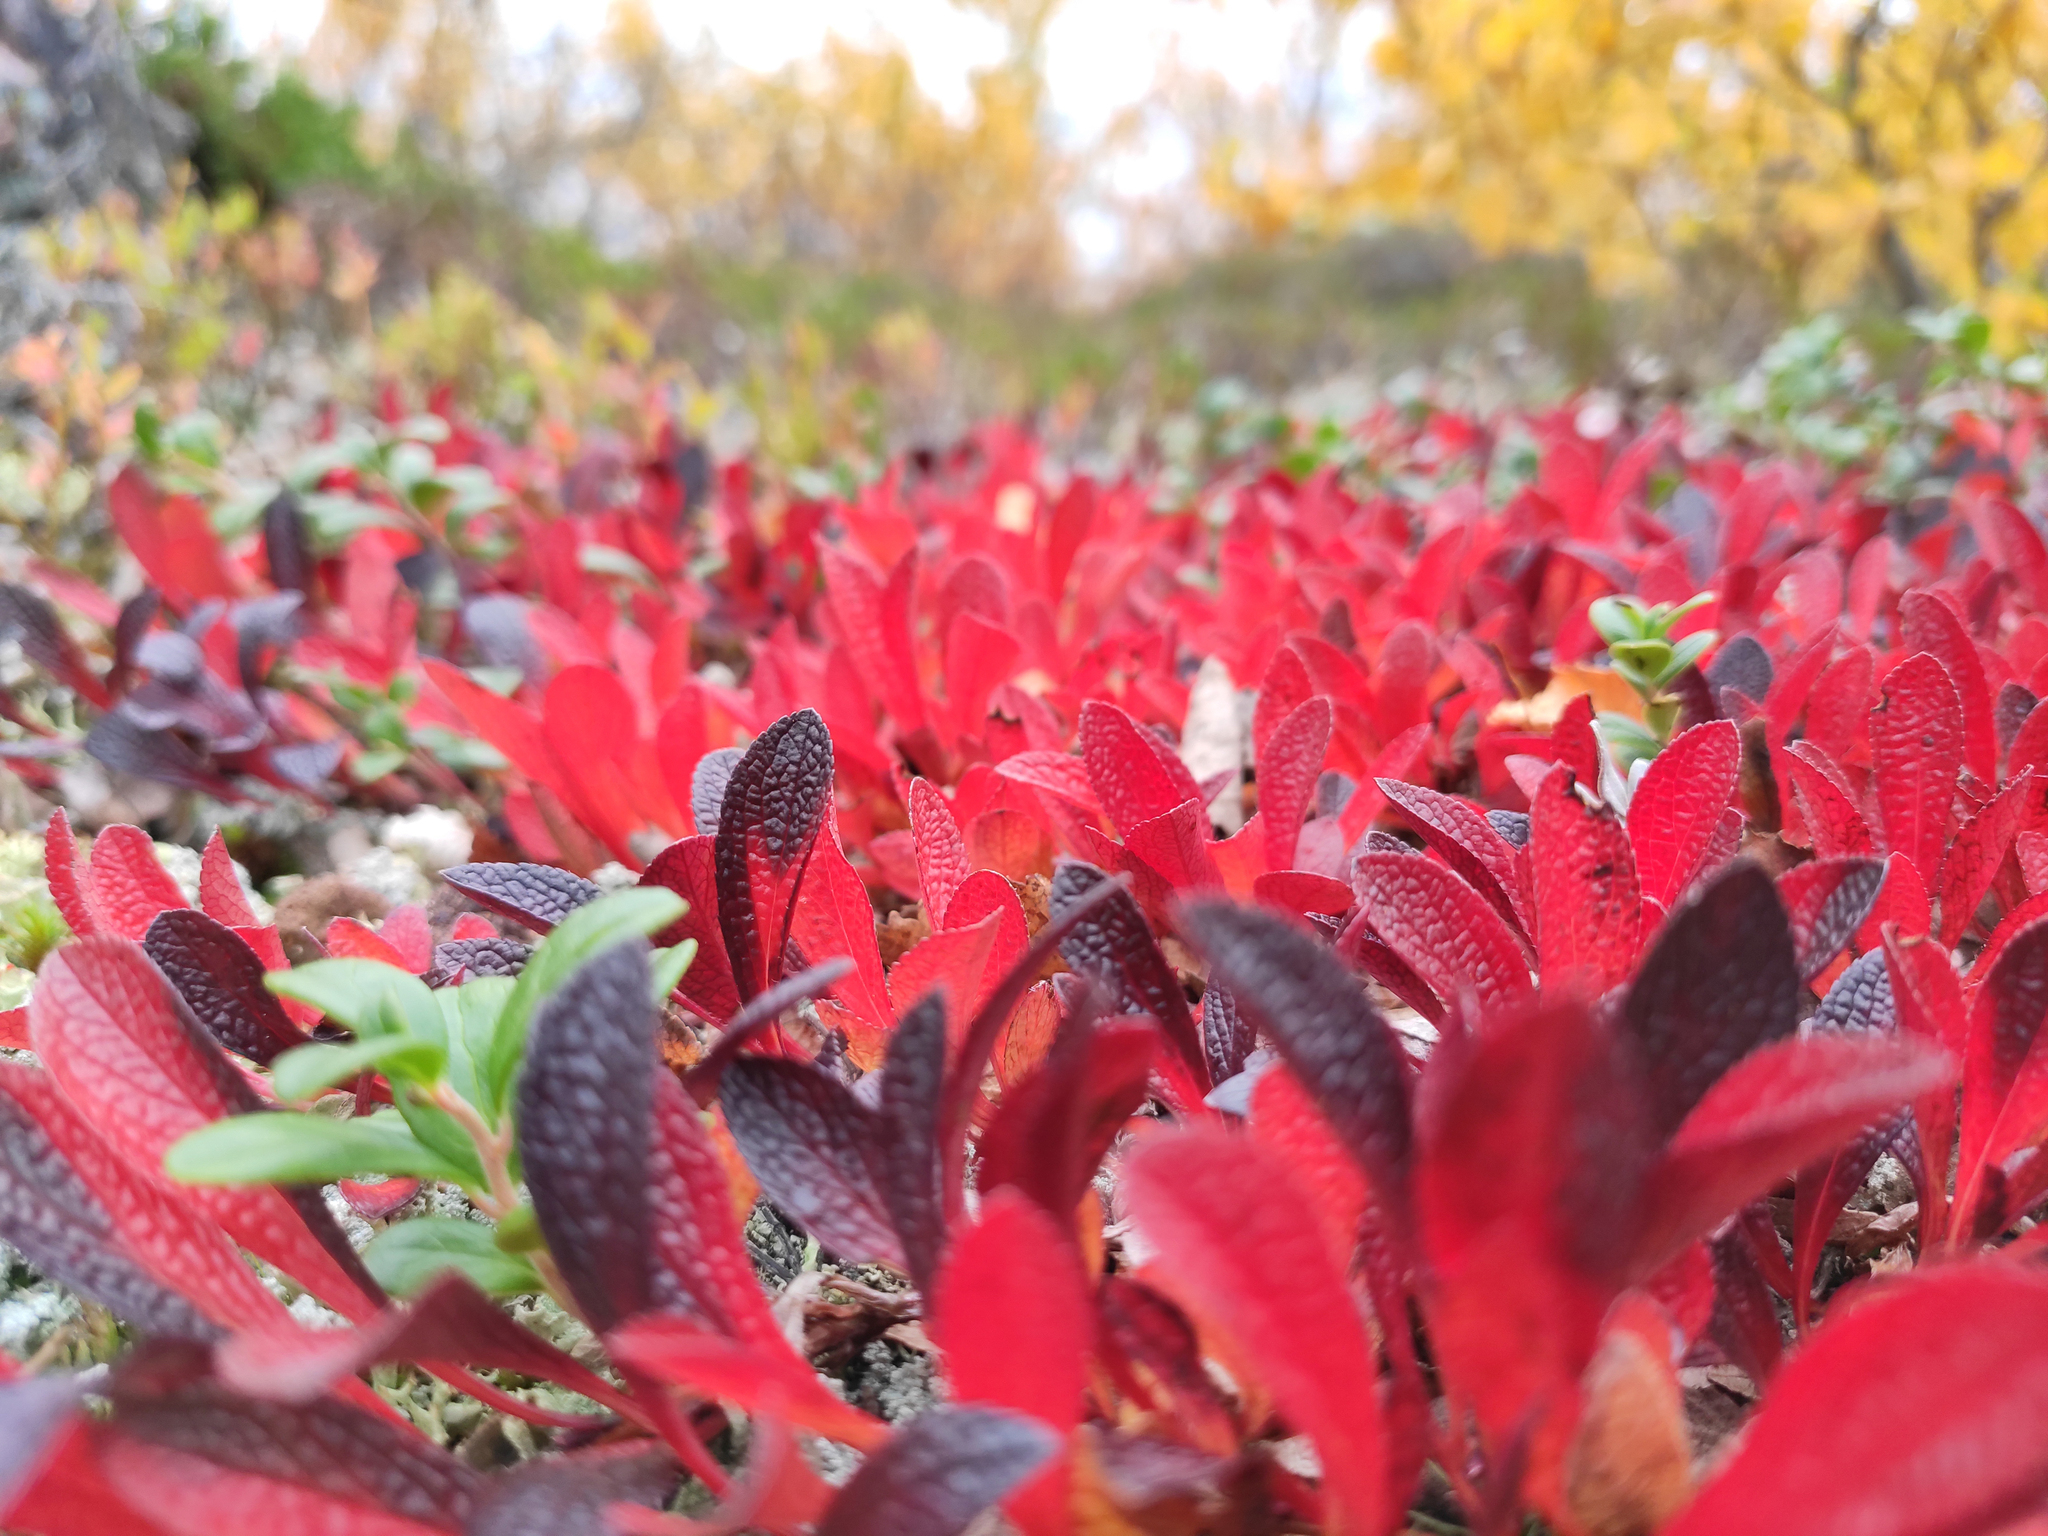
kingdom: Plantae
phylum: Tracheophyta
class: Magnoliopsida
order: Ericales
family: Ericaceae
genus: Arctostaphylos
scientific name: Arctostaphylos alpinus
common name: Alpine bearberry
